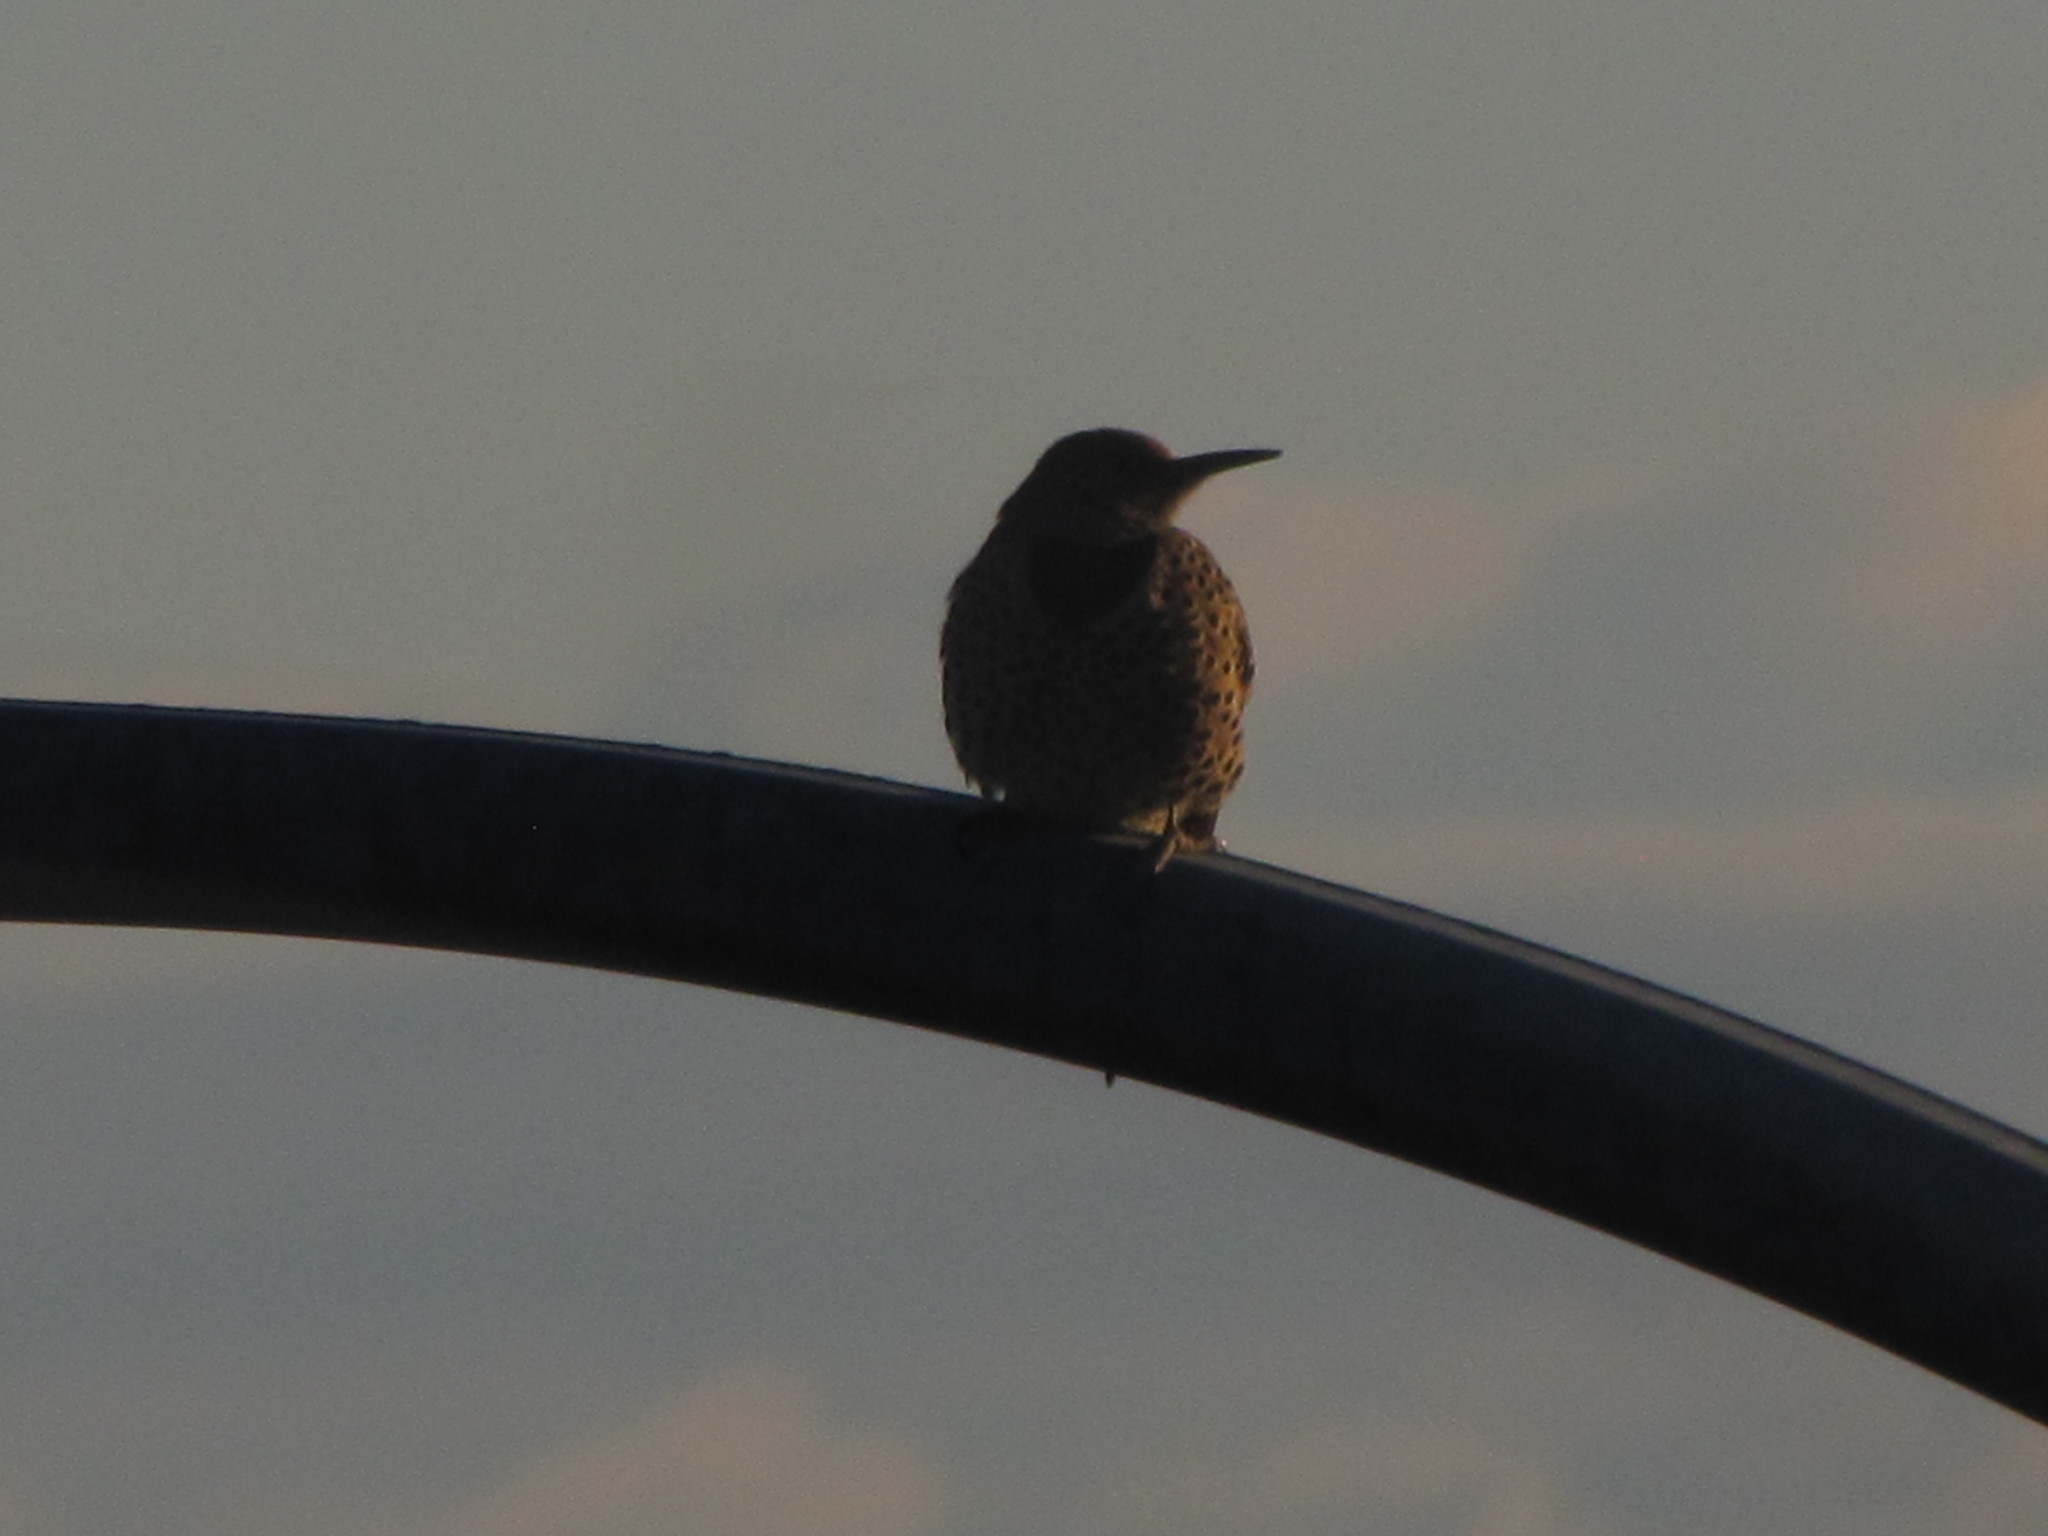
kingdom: Animalia
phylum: Chordata
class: Aves
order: Piciformes
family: Picidae
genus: Colaptes
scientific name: Colaptes auratus
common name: Northern flicker
